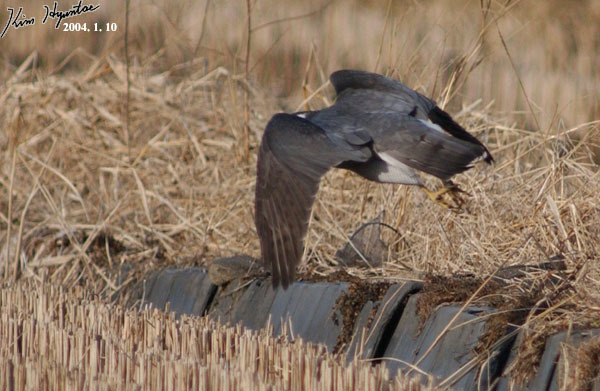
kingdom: Animalia
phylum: Chordata
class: Aves
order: Accipitriformes
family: Accipitridae
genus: Accipiter
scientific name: Accipiter gentilis
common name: Northern goshawk
